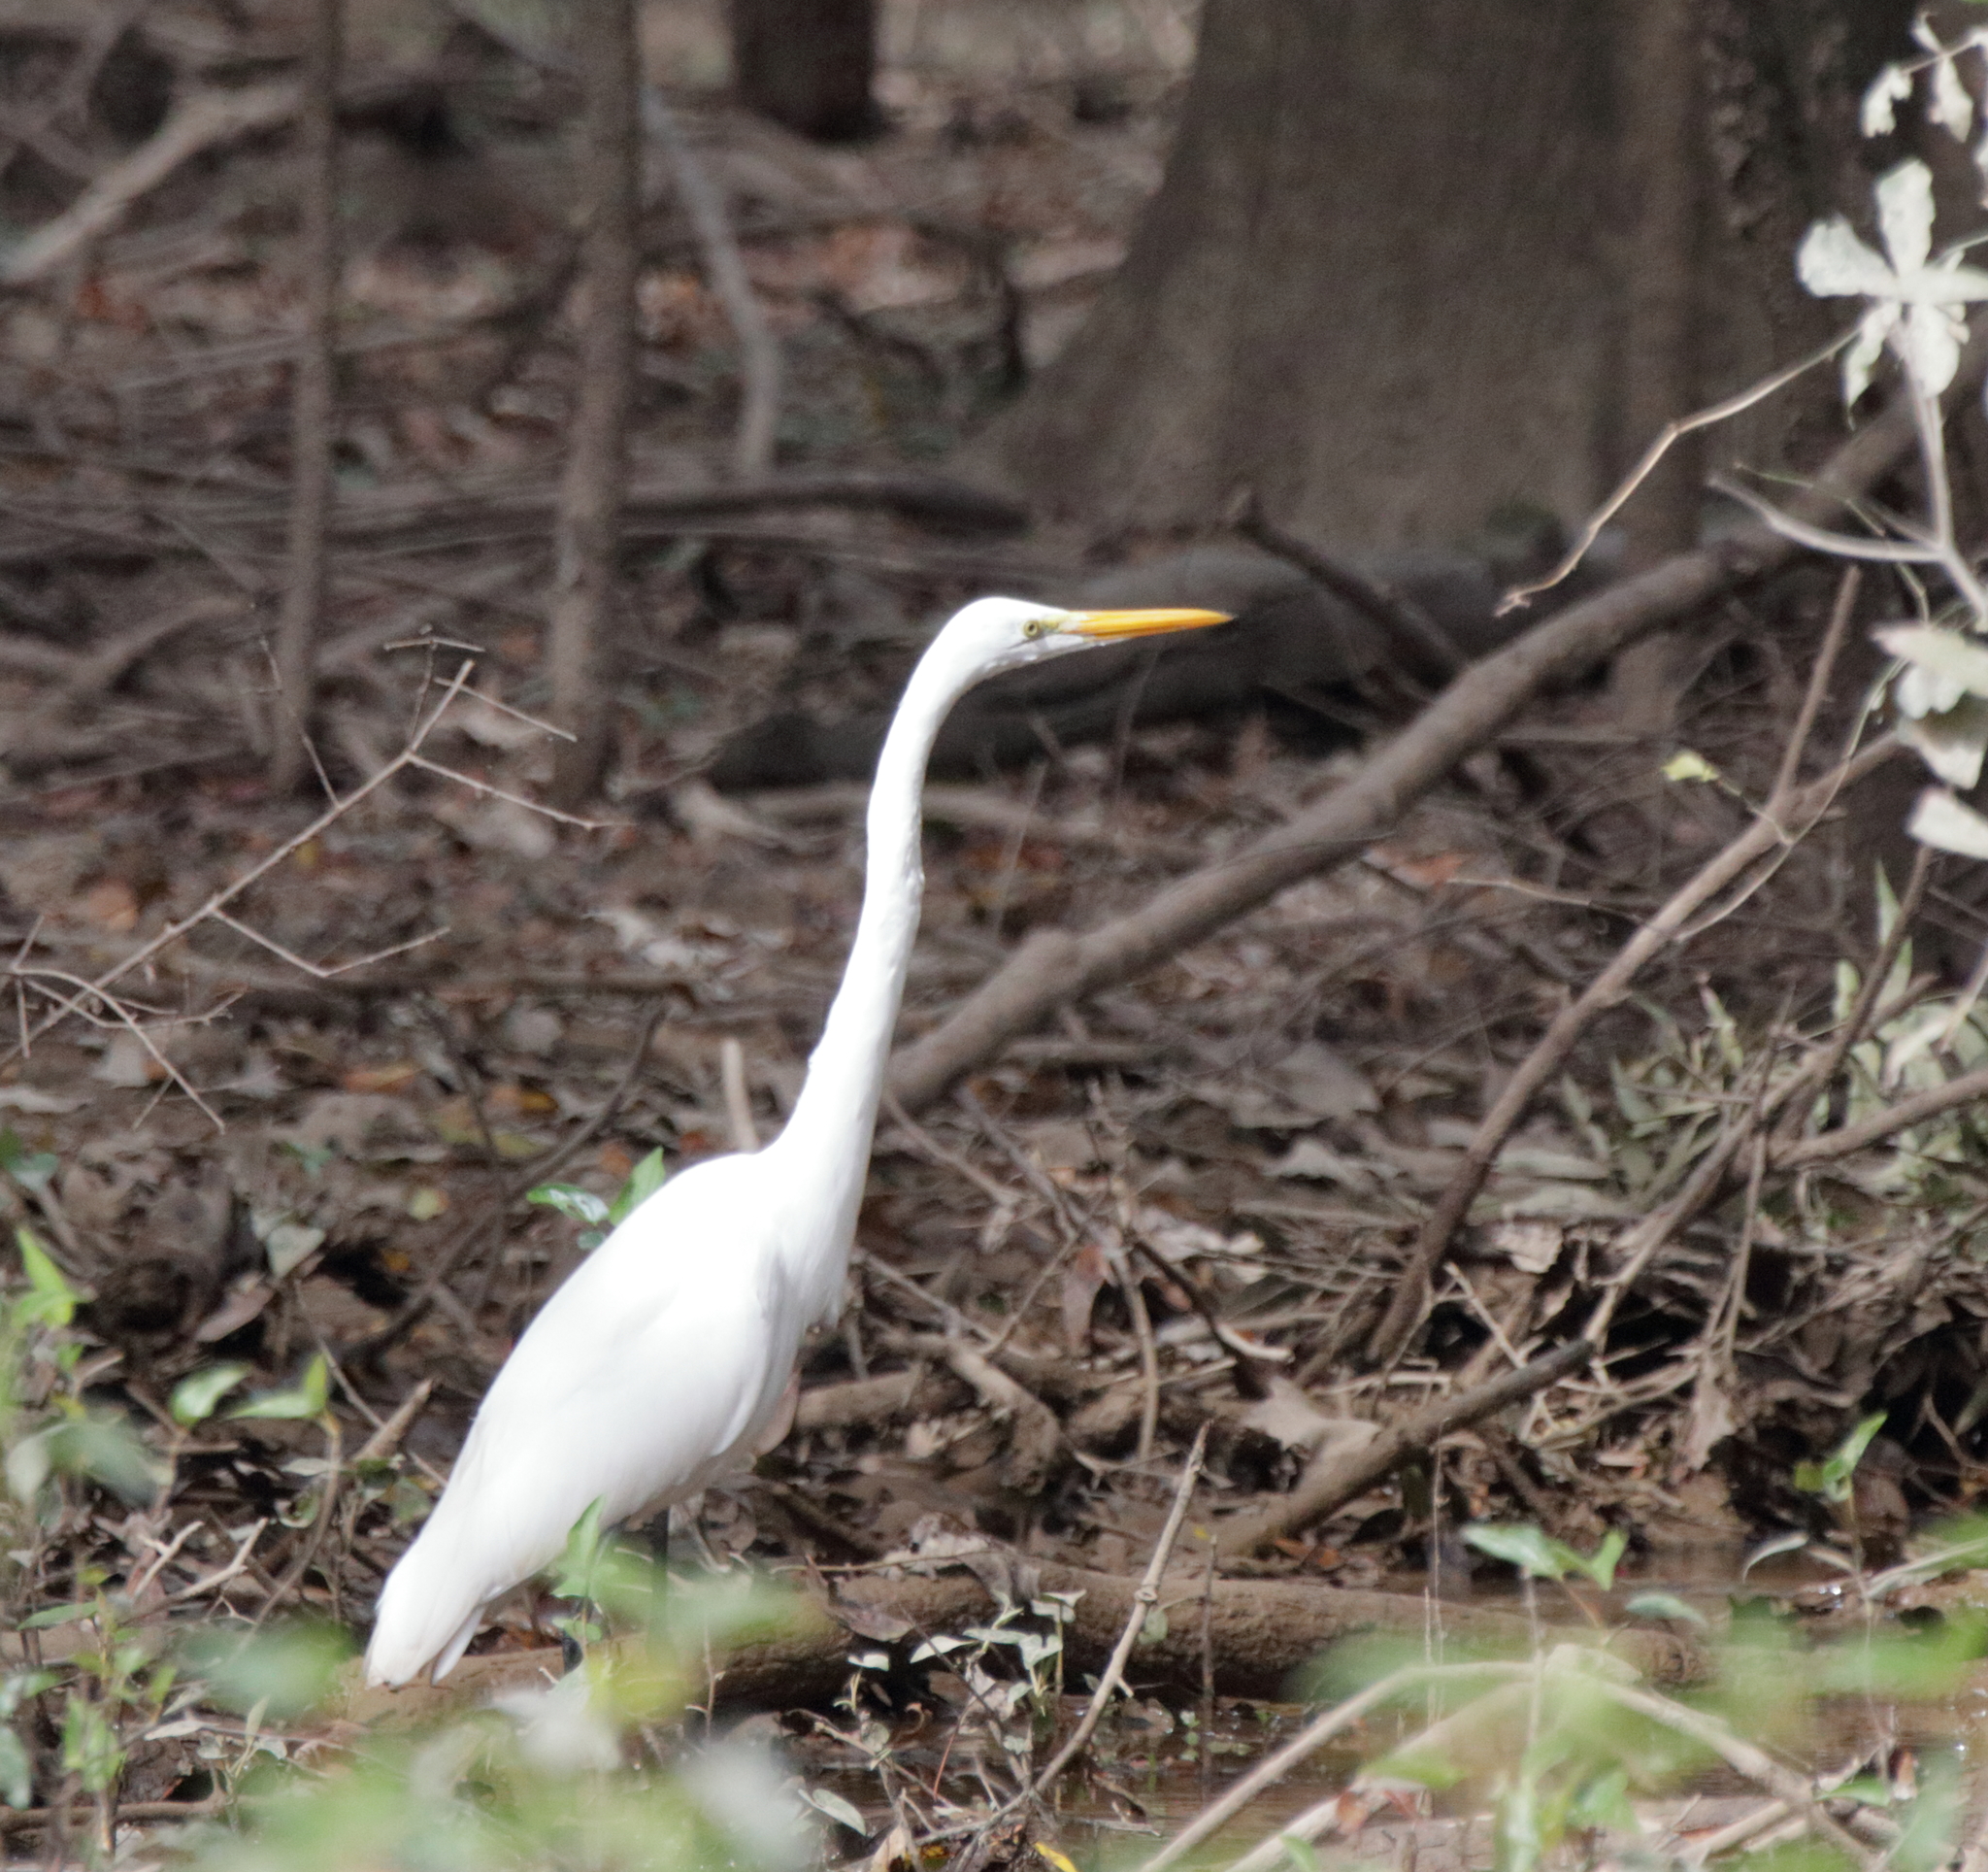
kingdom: Animalia
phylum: Chordata
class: Aves
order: Pelecaniformes
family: Ardeidae
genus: Ardea
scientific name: Ardea alba
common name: Great egret
